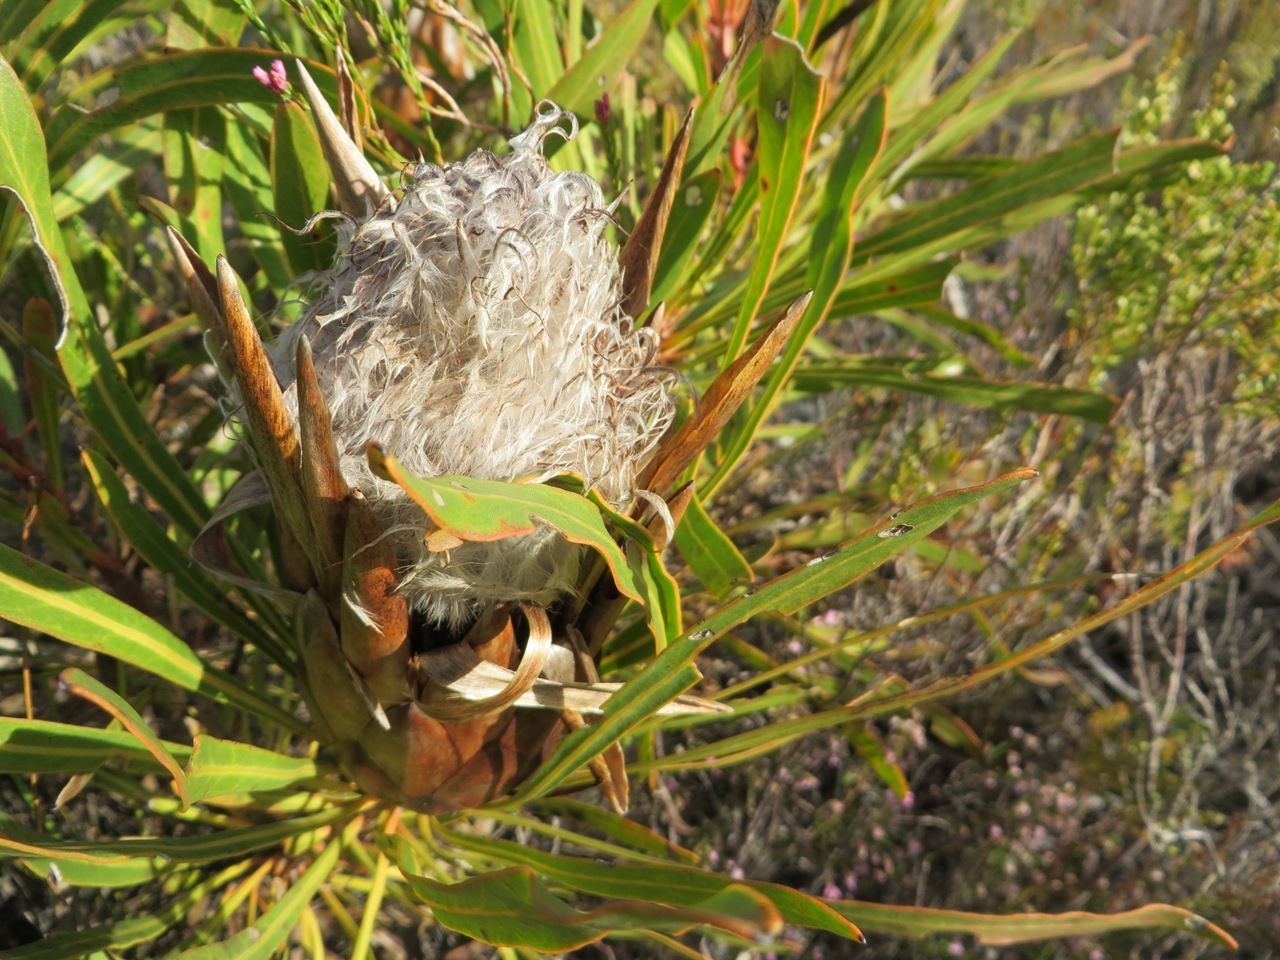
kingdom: Plantae
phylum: Tracheophyta
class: Magnoliopsida
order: Proteales
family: Proteaceae
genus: Protea
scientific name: Protea longifolia
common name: Long-leaf sugarbush
